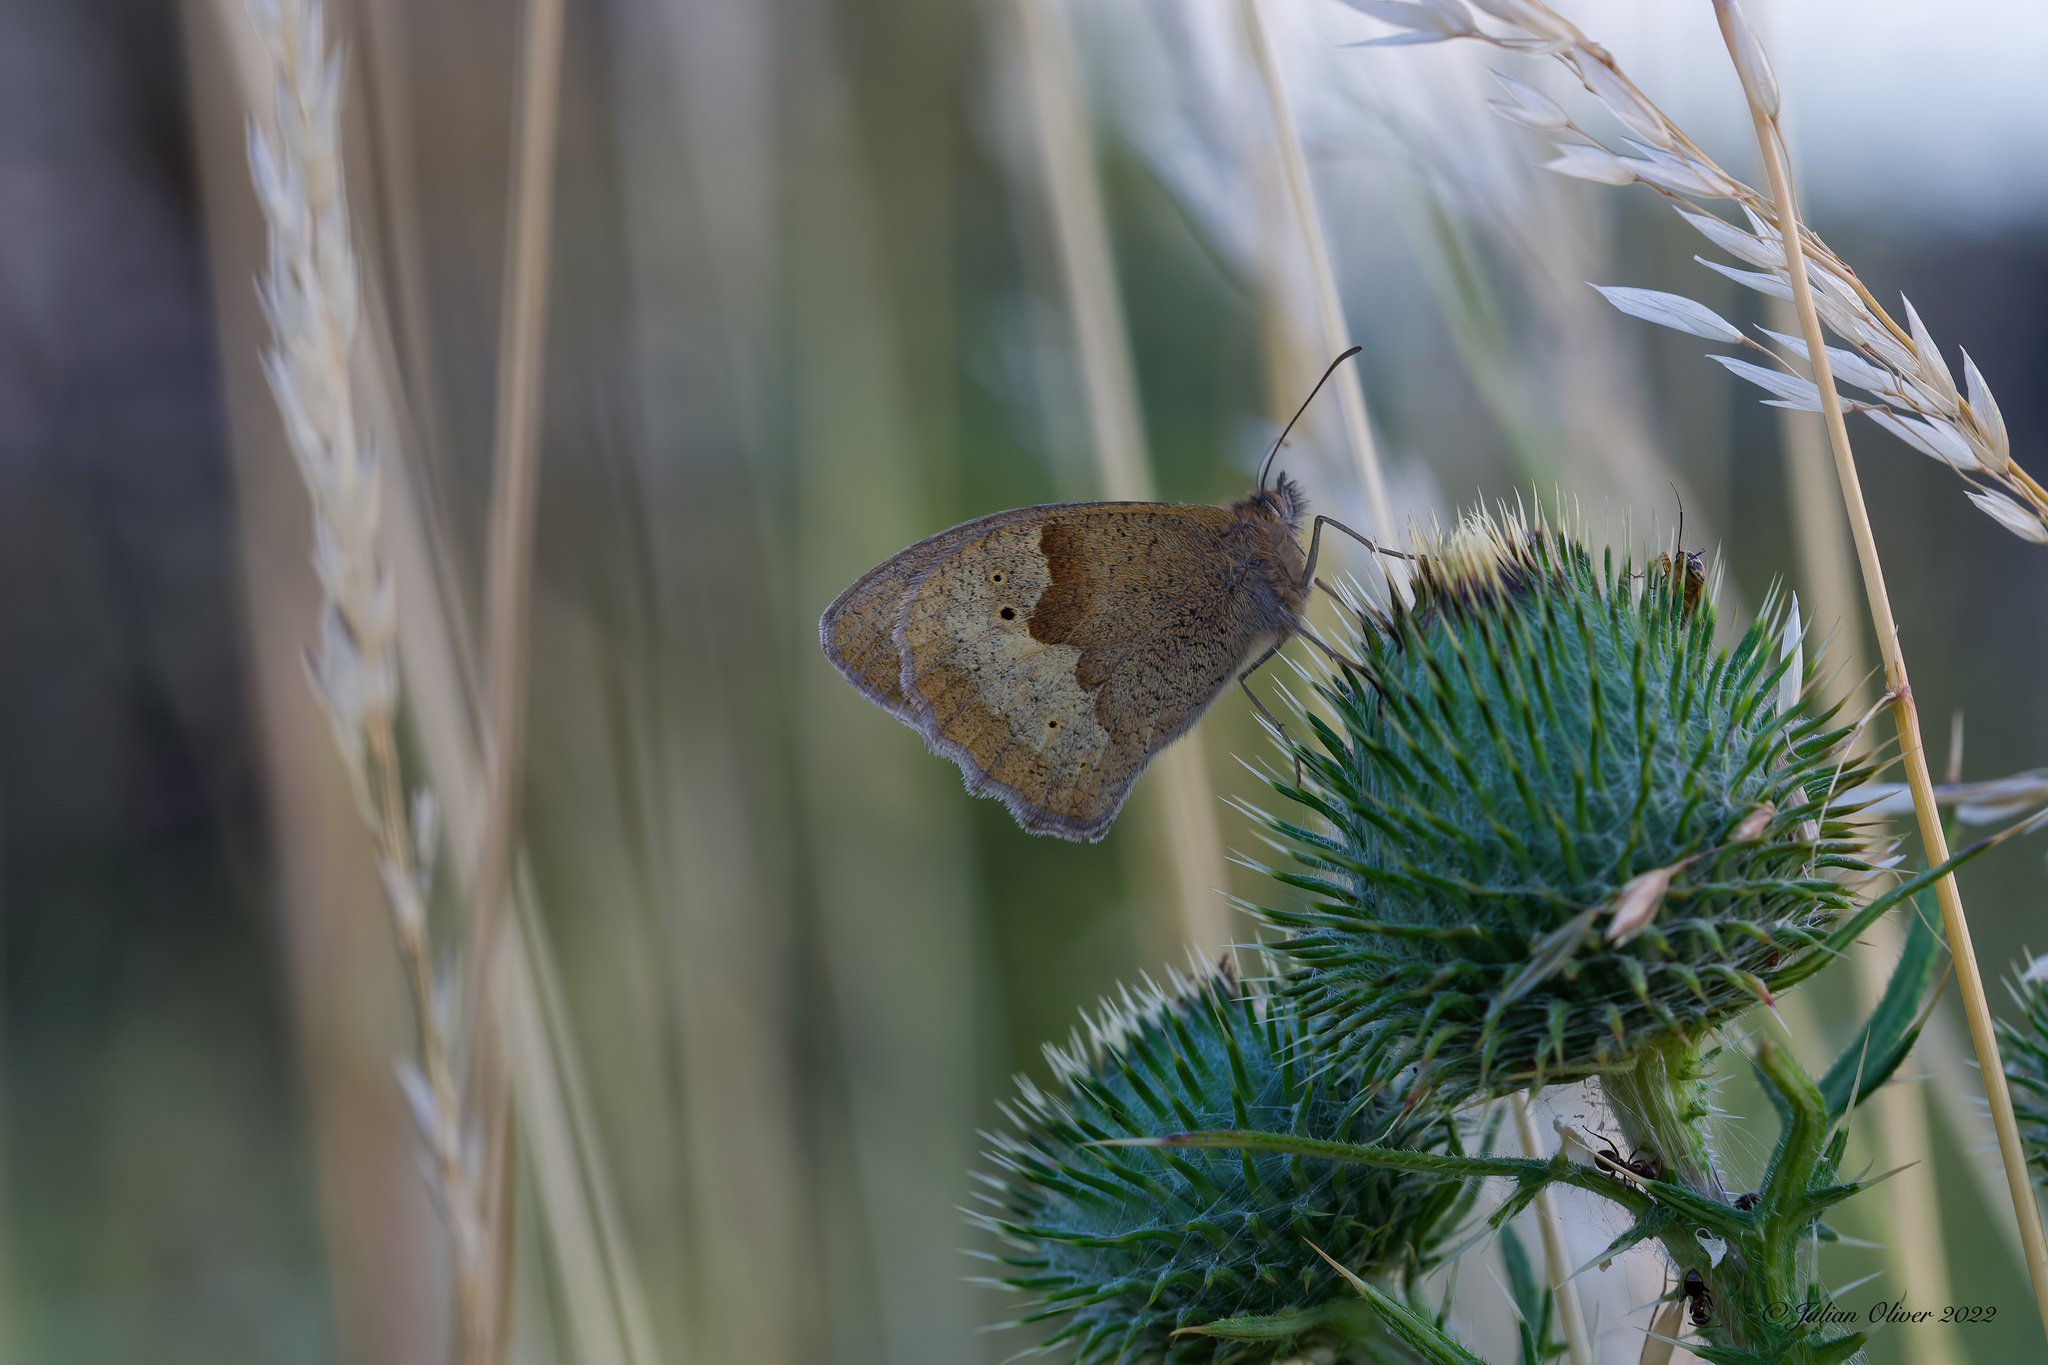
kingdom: Animalia
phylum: Arthropoda
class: Insecta
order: Lepidoptera
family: Nymphalidae
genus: Maniola
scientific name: Maniola jurtina
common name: Meadow brown
